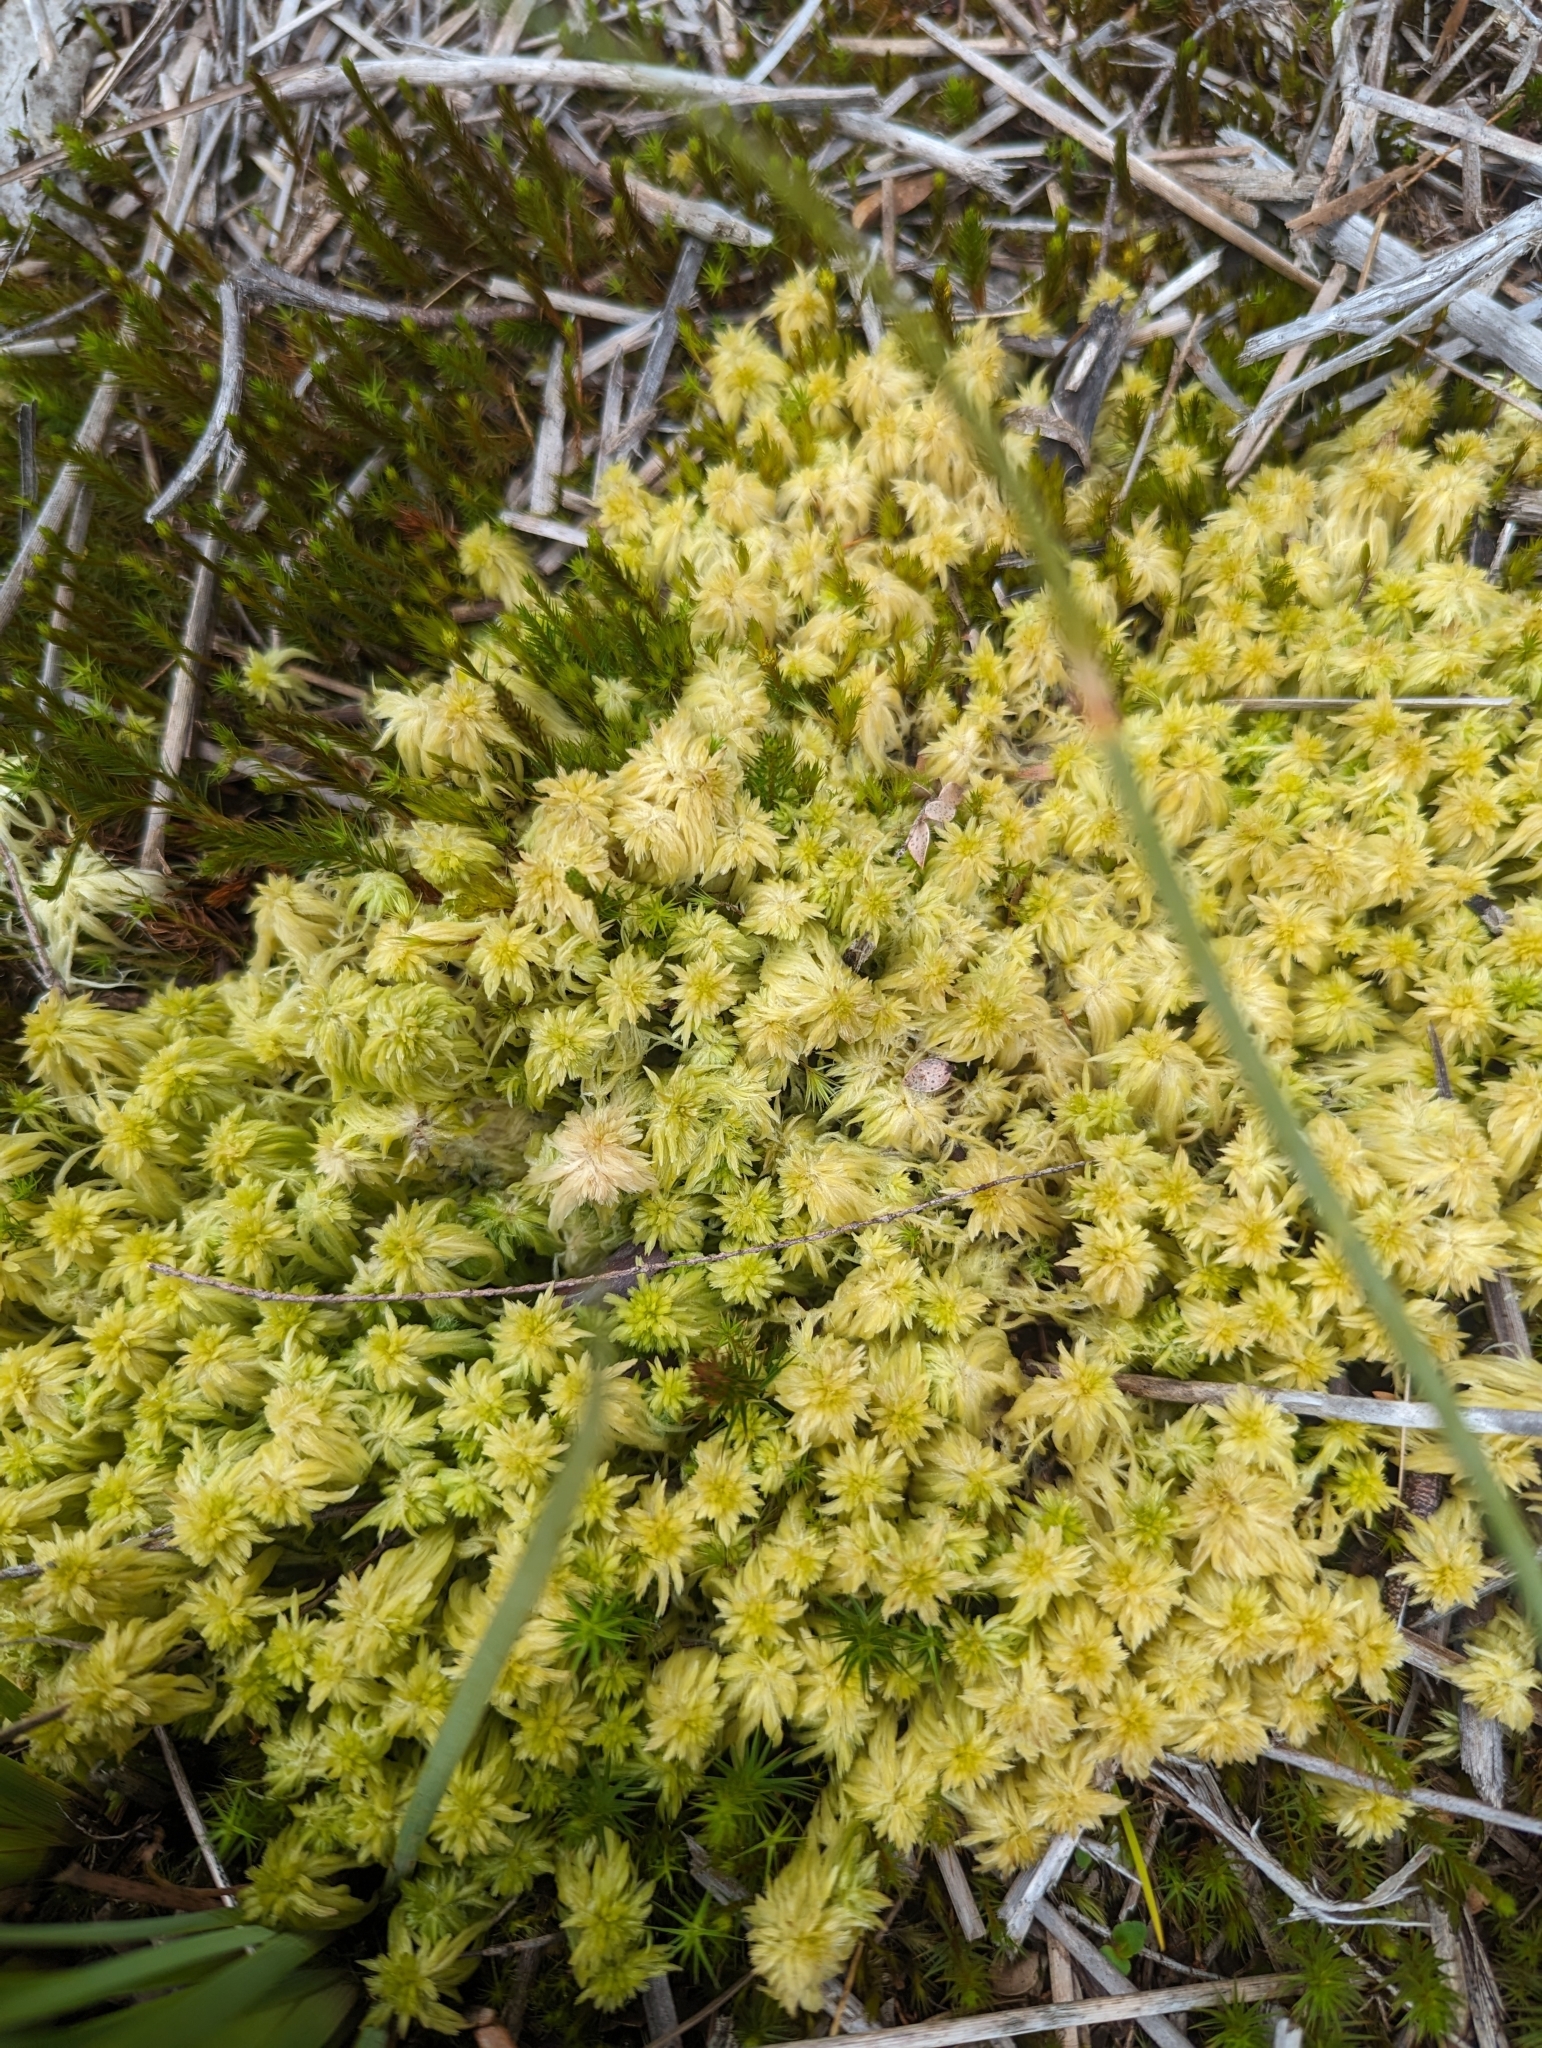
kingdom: Plantae
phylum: Bryophyta
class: Sphagnopsida
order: Sphagnales
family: Sphagnaceae
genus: Sphagnum
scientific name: Sphagnum falcatulum
